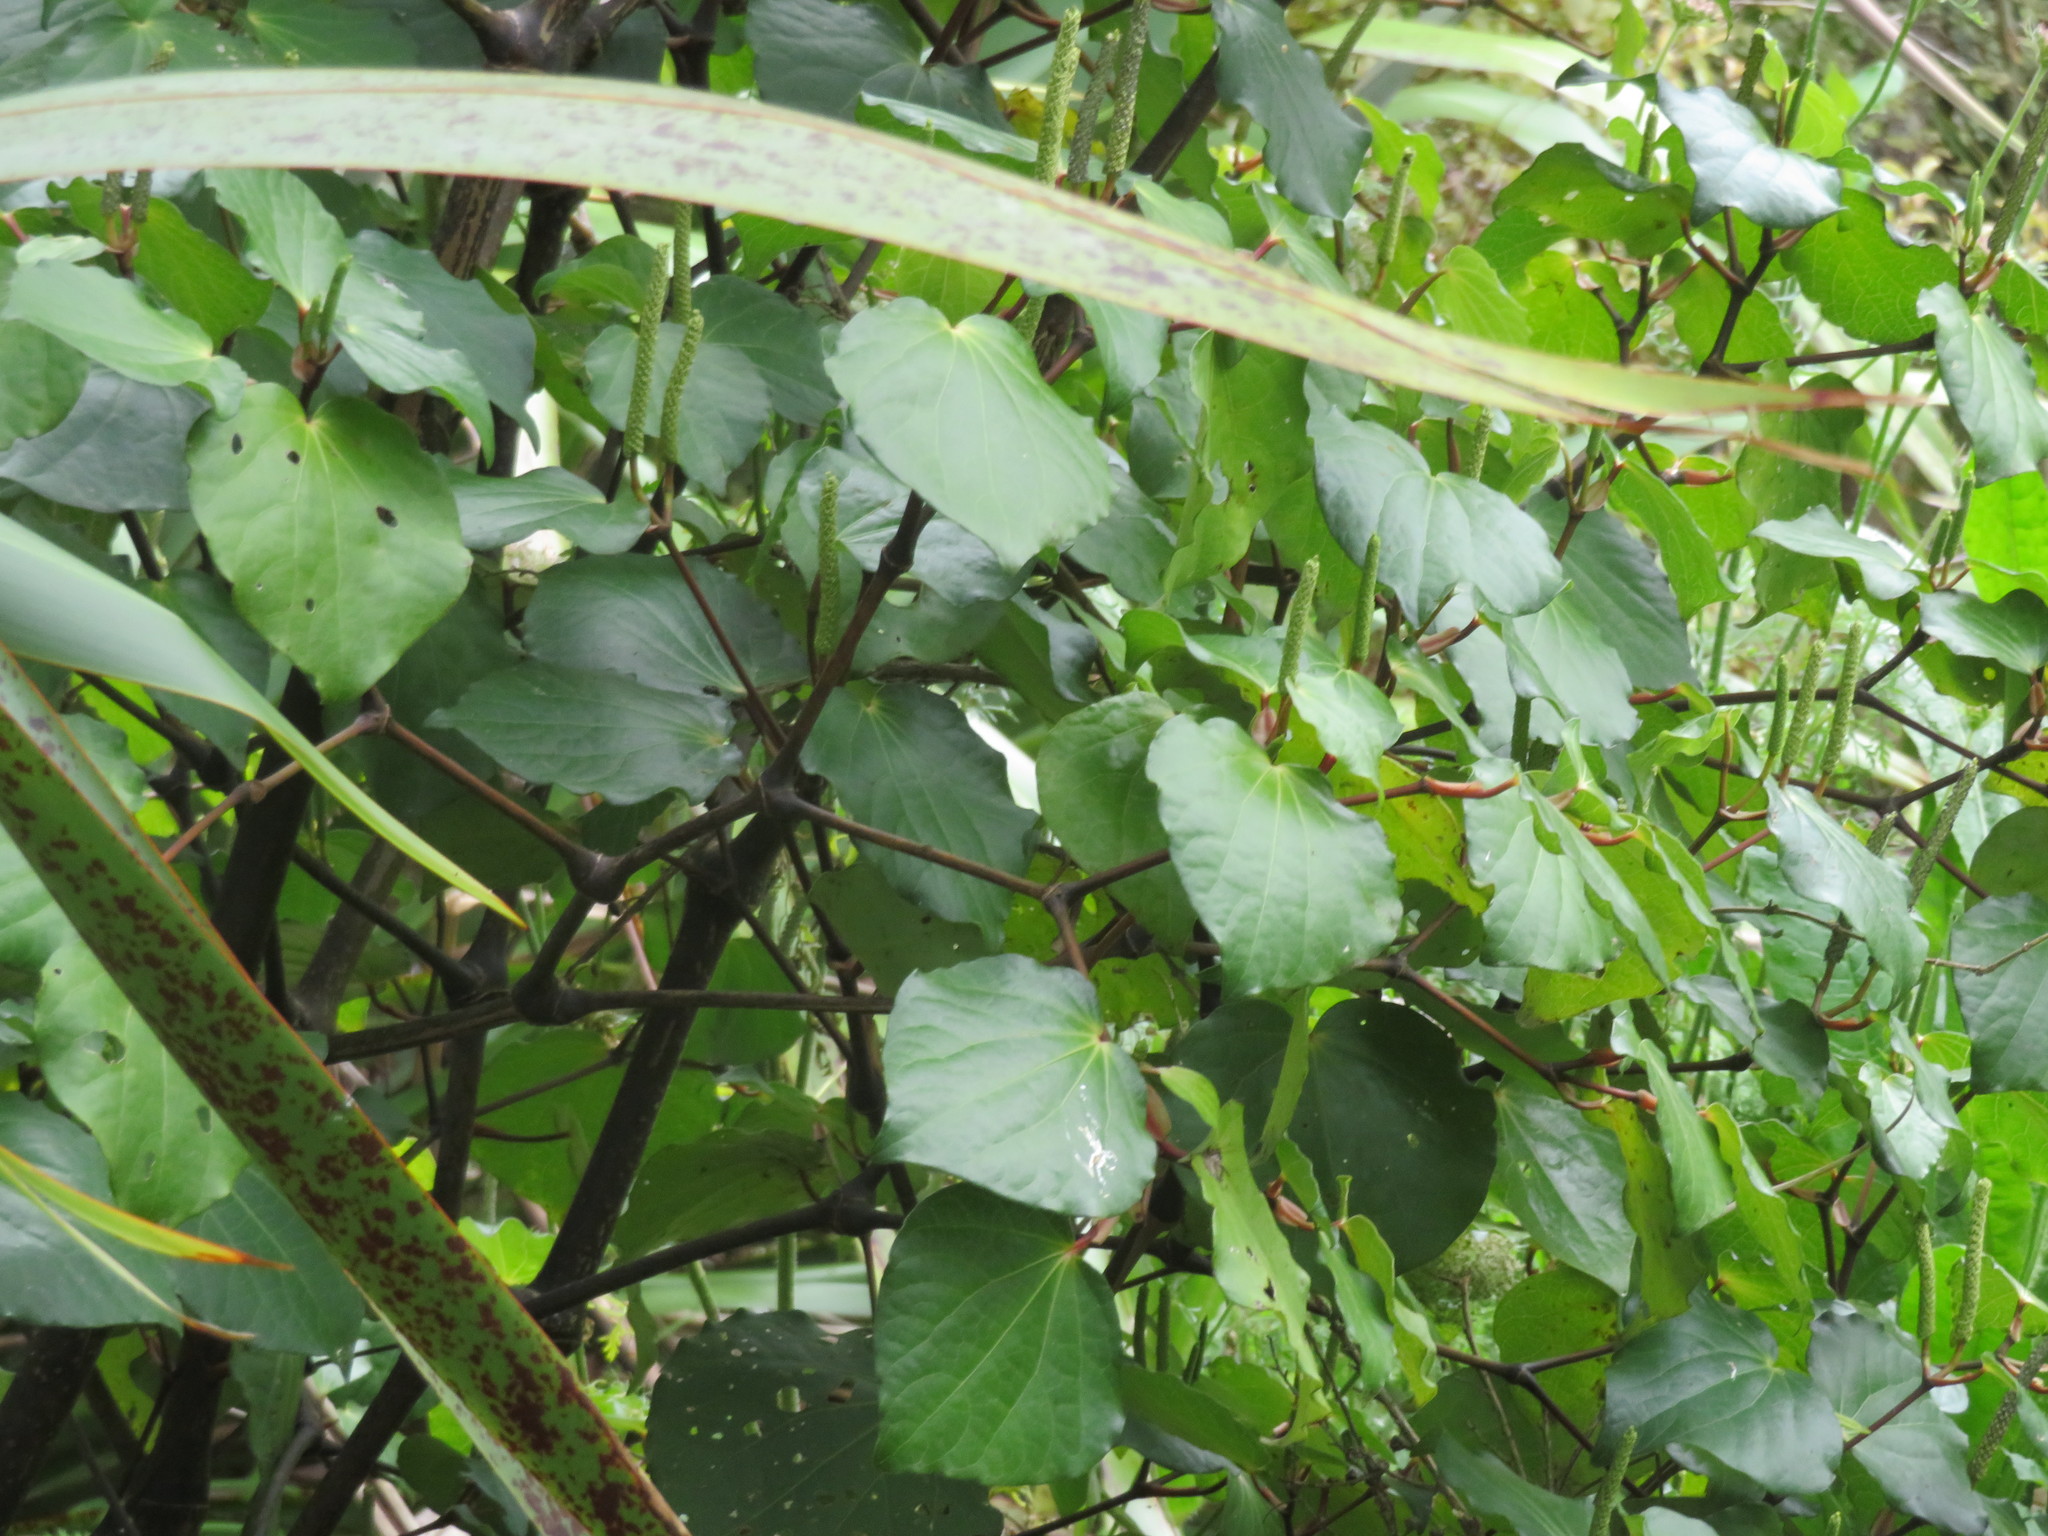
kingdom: Plantae
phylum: Tracheophyta
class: Magnoliopsida
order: Piperales
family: Piperaceae
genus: Macropiper
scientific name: Macropiper excelsum
